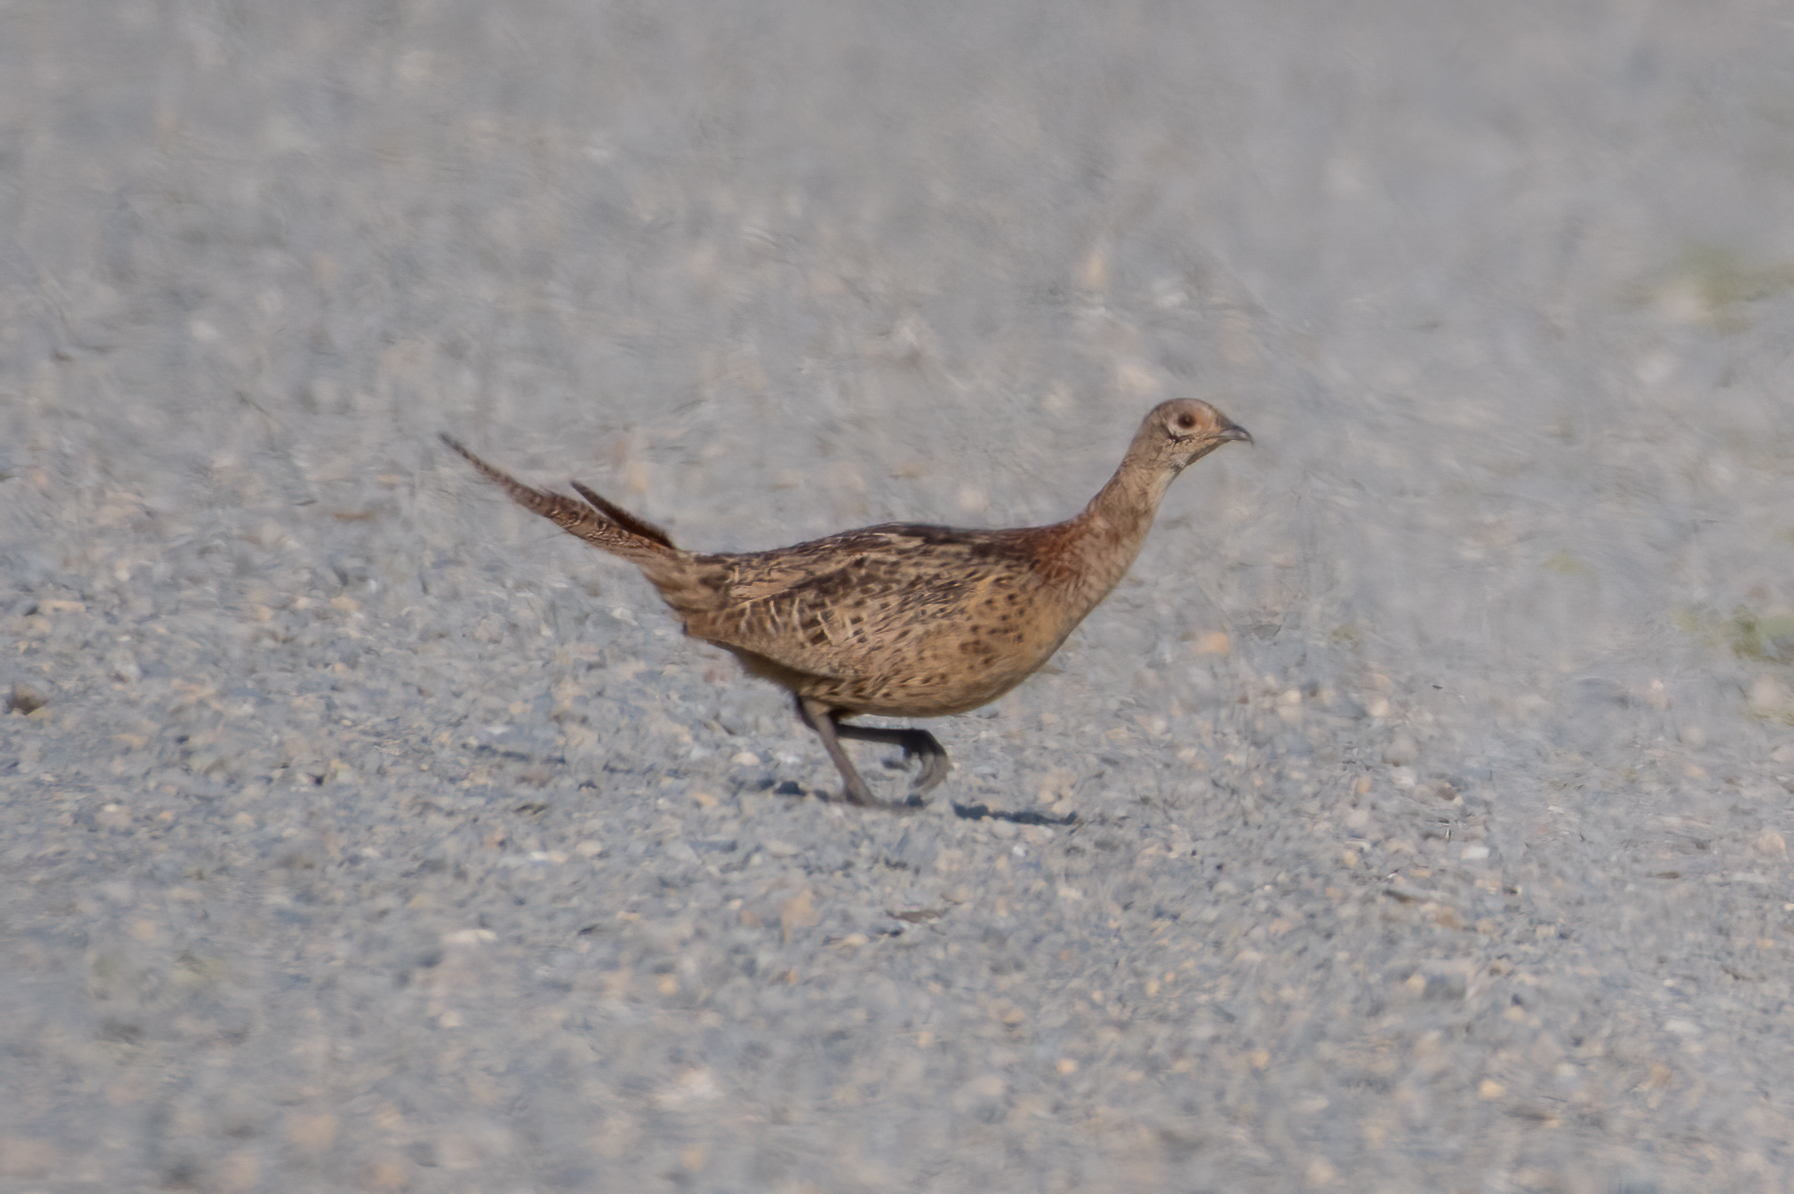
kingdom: Animalia
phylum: Chordata
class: Aves
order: Galliformes
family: Phasianidae
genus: Phasianus
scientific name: Phasianus colchicus
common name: Common pheasant
